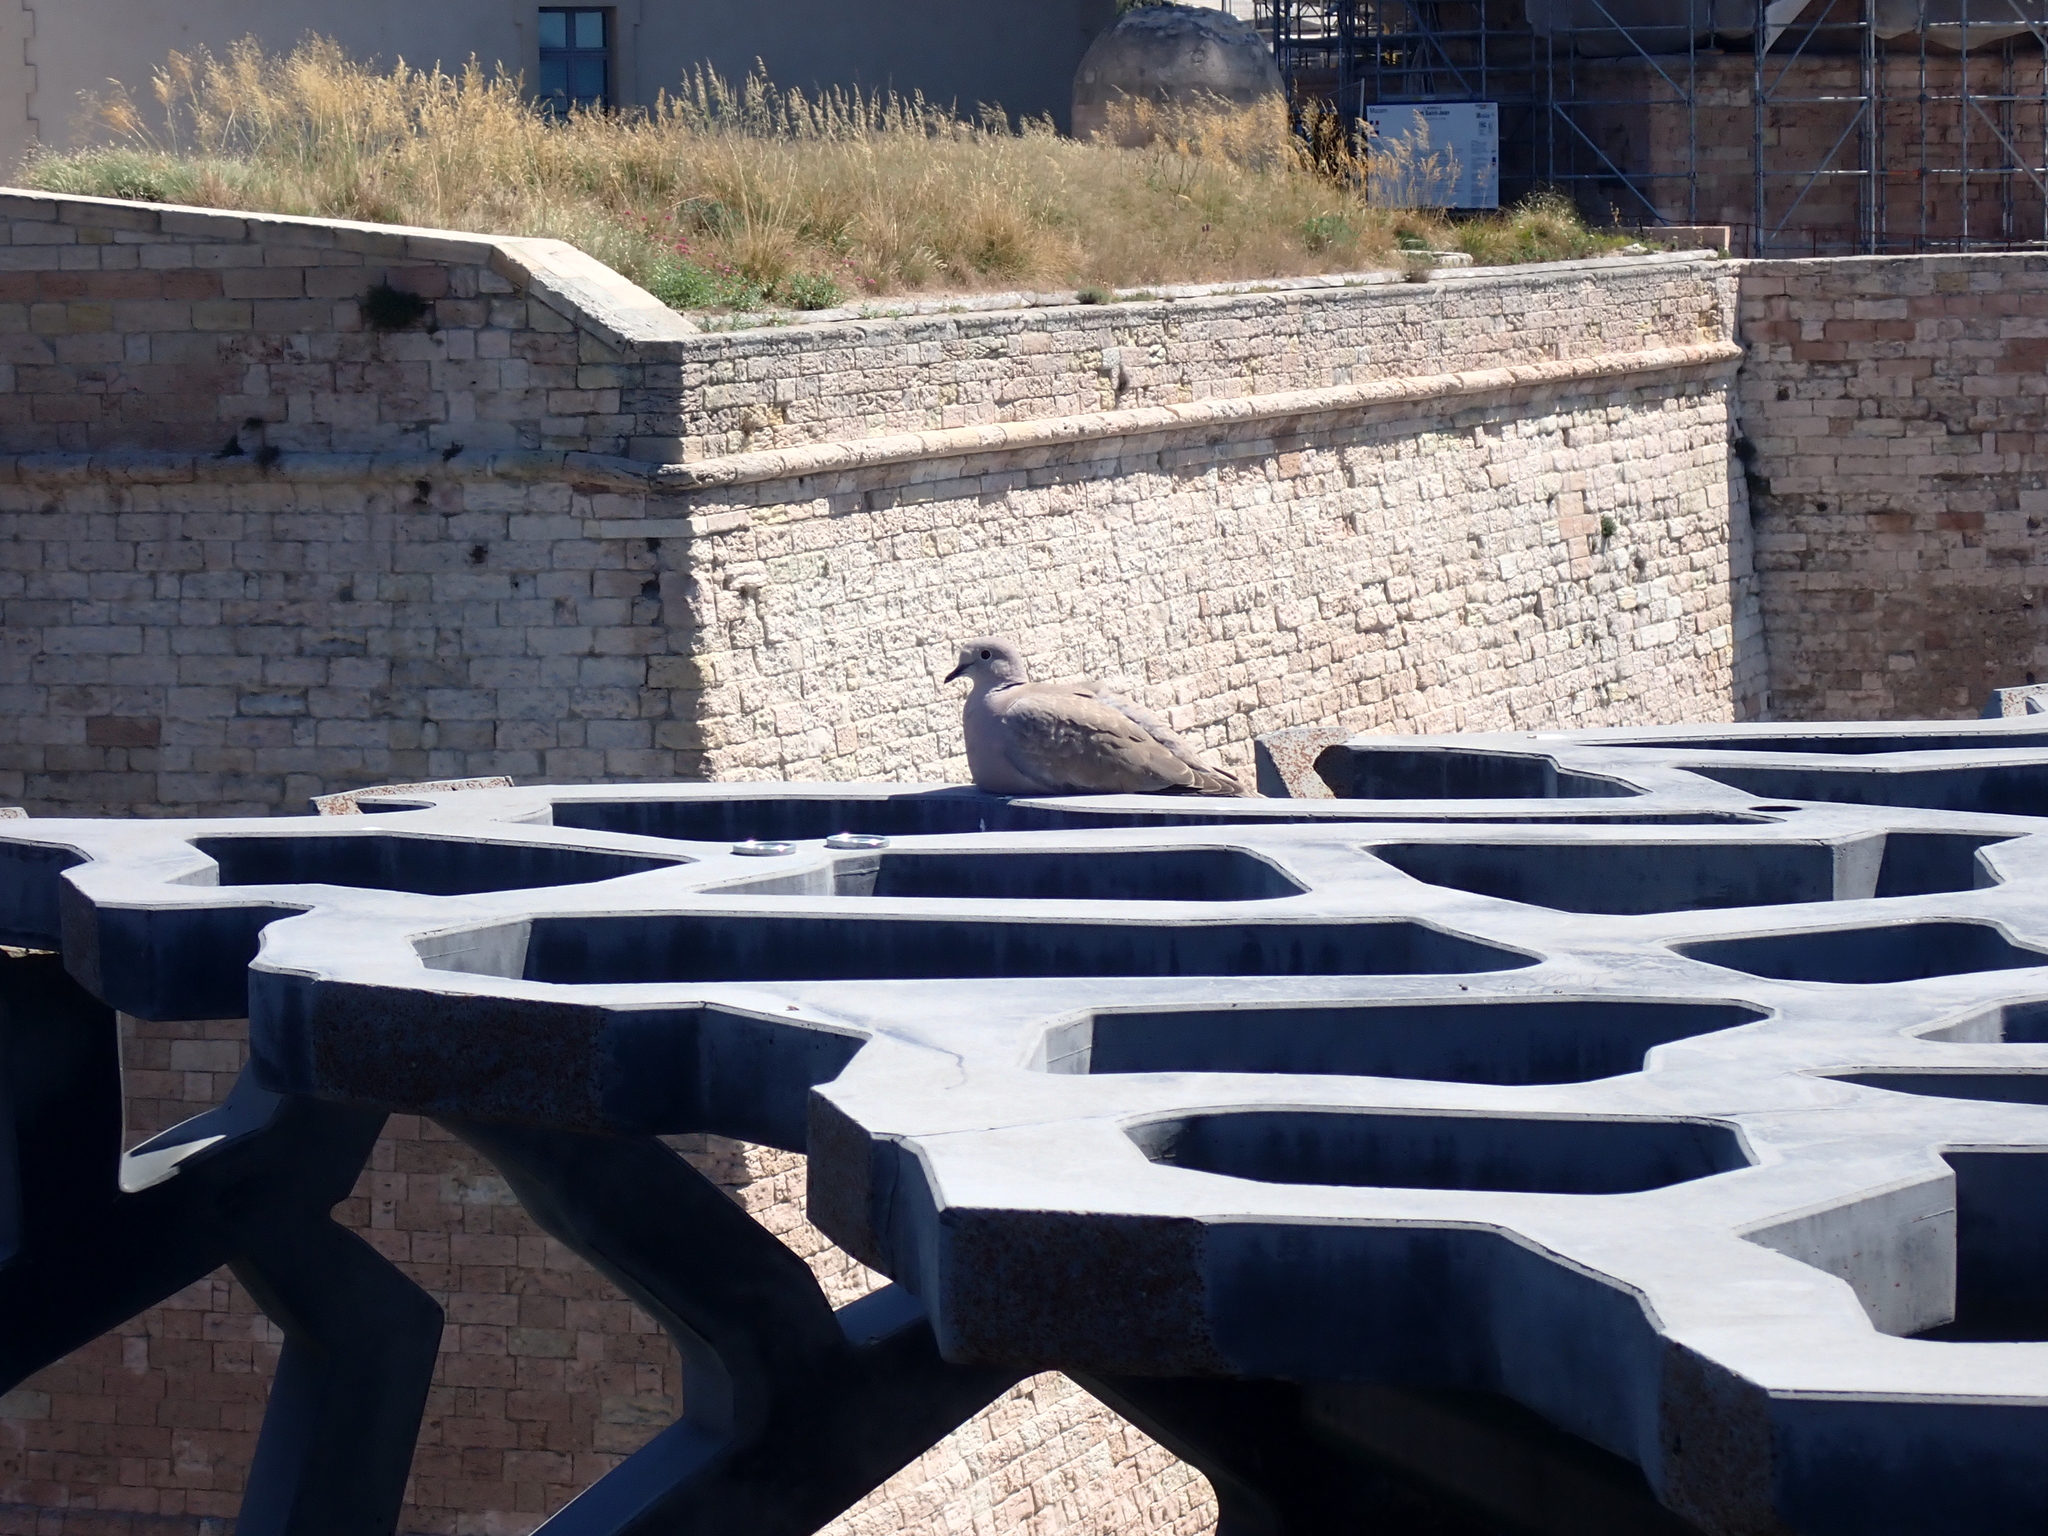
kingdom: Animalia
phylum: Chordata
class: Aves
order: Columbiformes
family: Columbidae
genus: Streptopelia
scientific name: Streptopelia decaocto
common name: Eurasian collared dove
